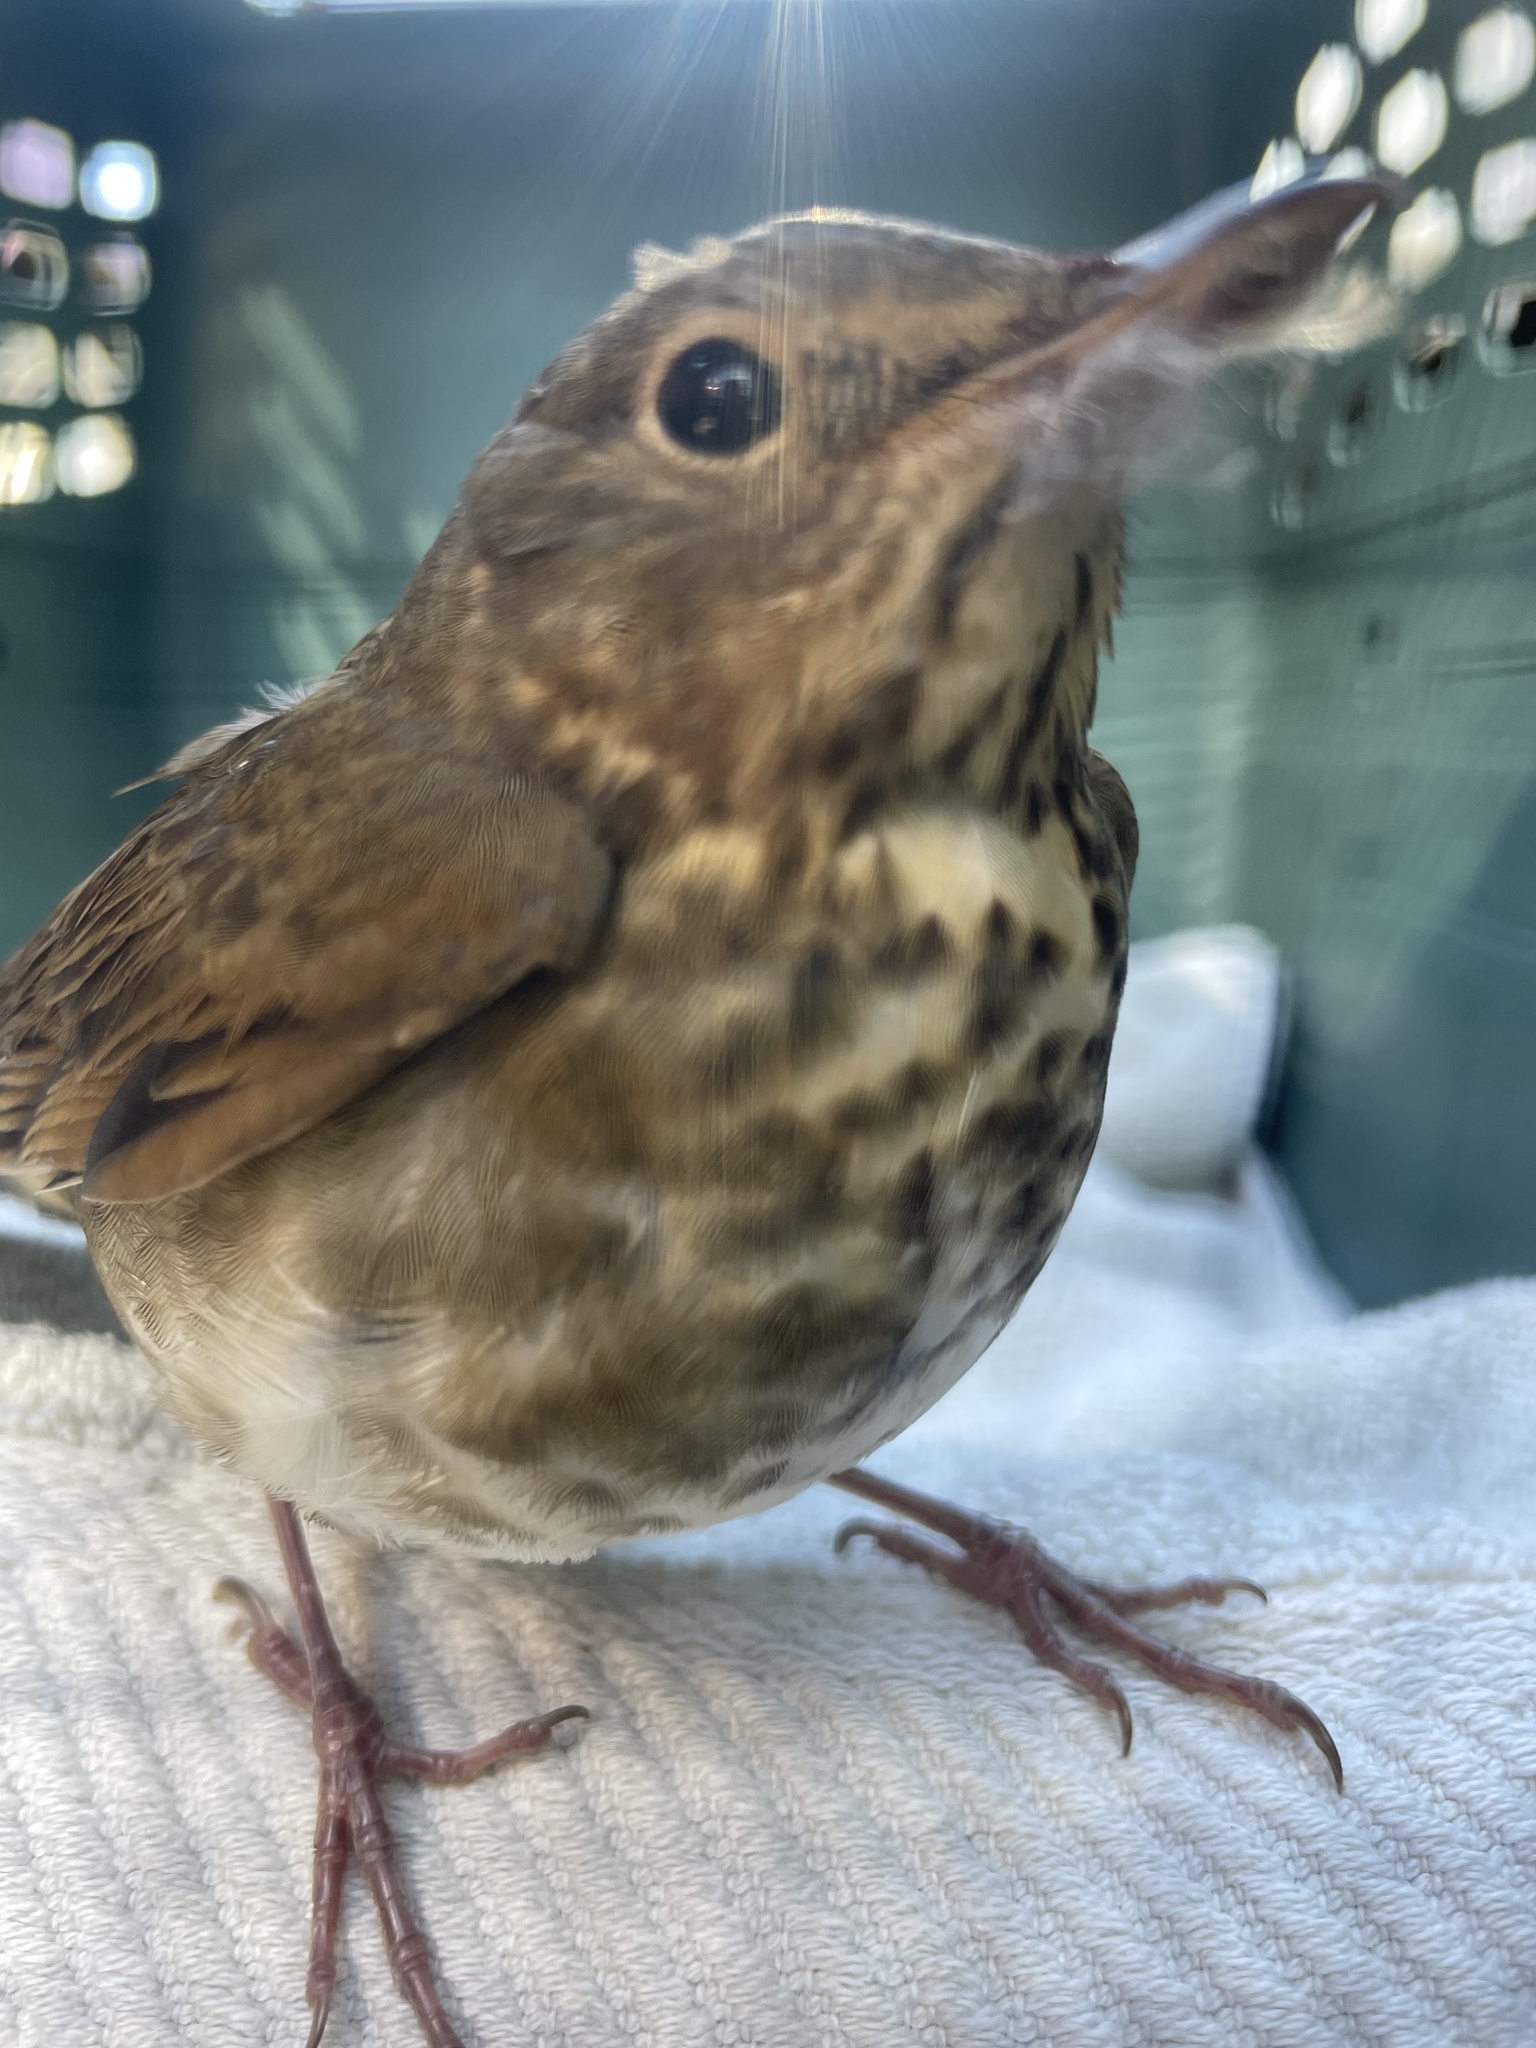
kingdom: Animalia
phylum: Chordata
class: Aves
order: Passeriformes
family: Turdidae
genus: Catharus
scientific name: Catharus ustulatus
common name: Swainson's thrush
